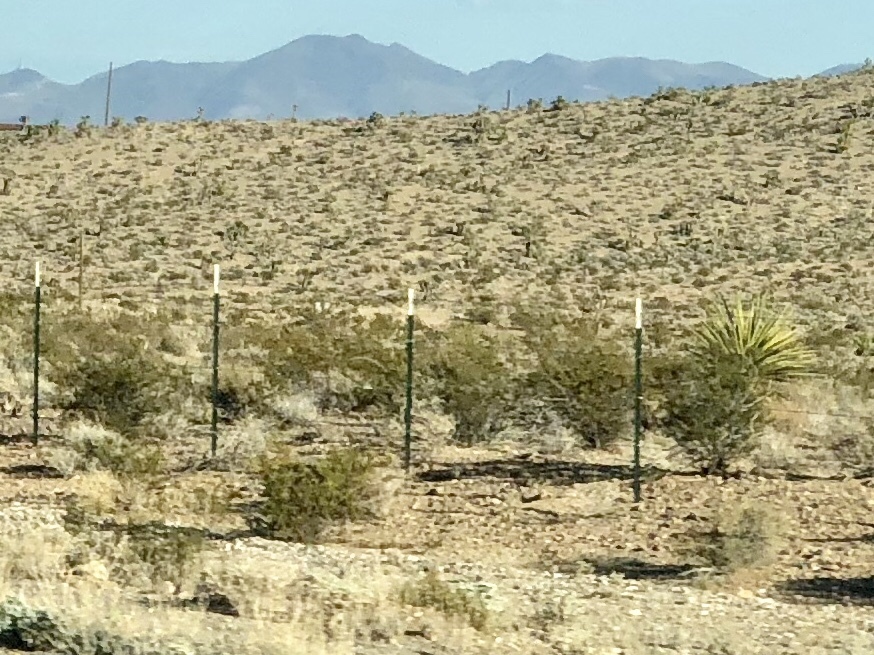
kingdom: Plantae
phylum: Tracheophyta
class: Magnoliopsida
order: Zygophyllales
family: Zygophyllaceae
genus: Larrea
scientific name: Larrea tridentata
